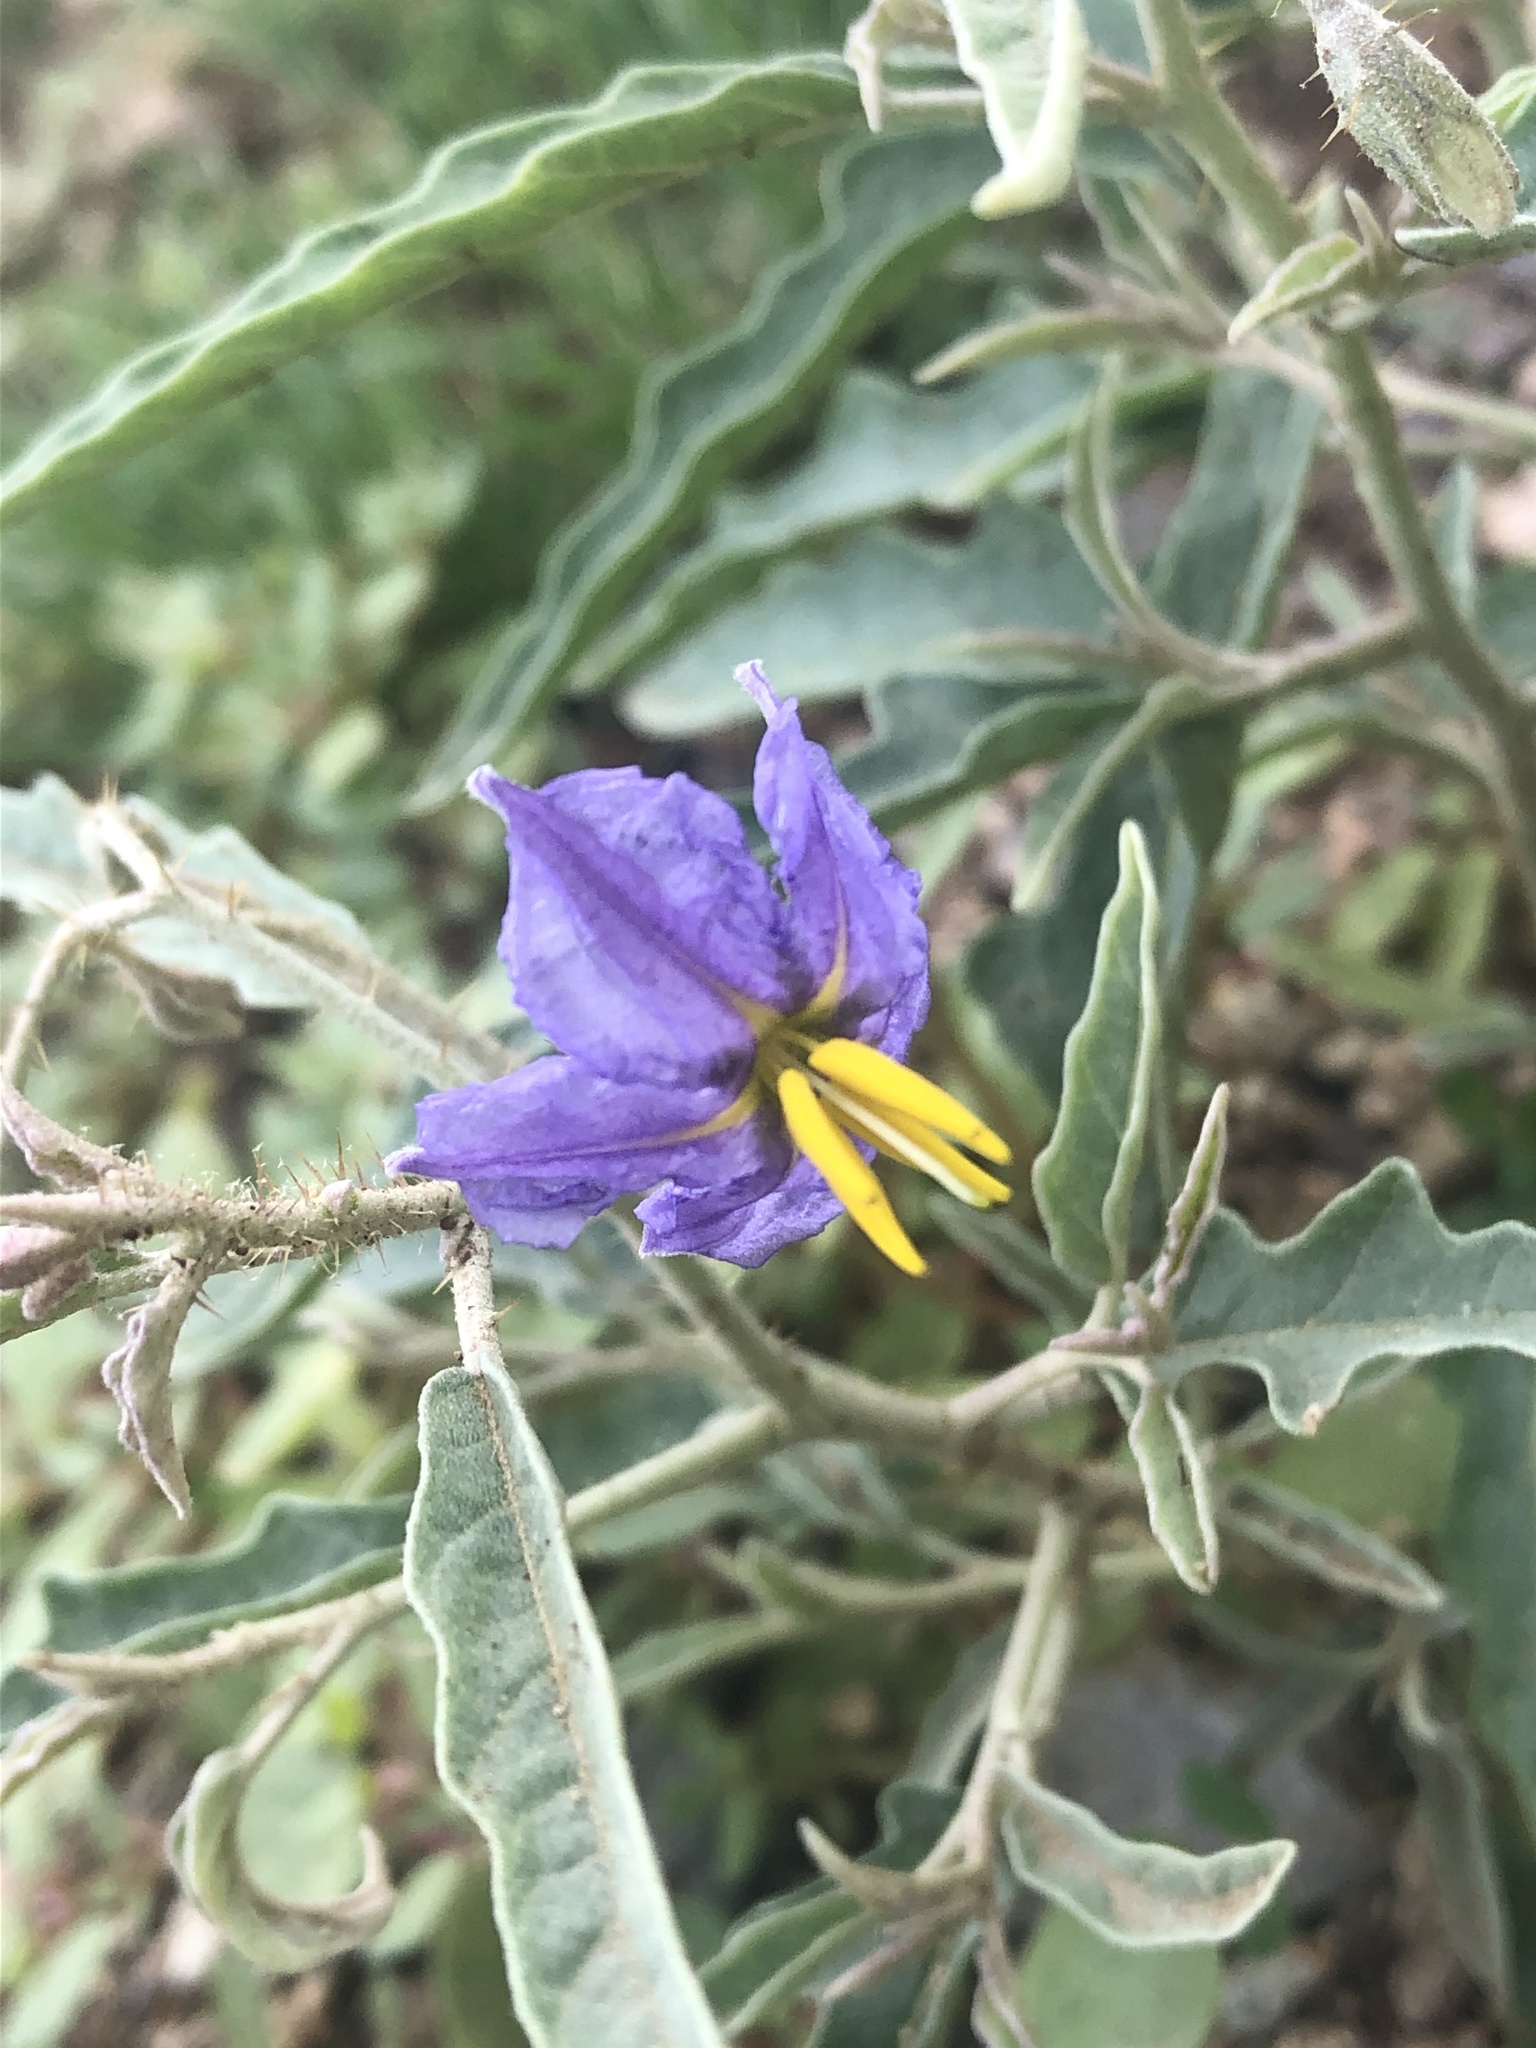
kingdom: Plantae
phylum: Tracheophyta
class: Magnoliopsida
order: Solanales
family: Solanaceae
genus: Solanum
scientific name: Solanum elaeagnifolium
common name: Silverleaf nightshade
